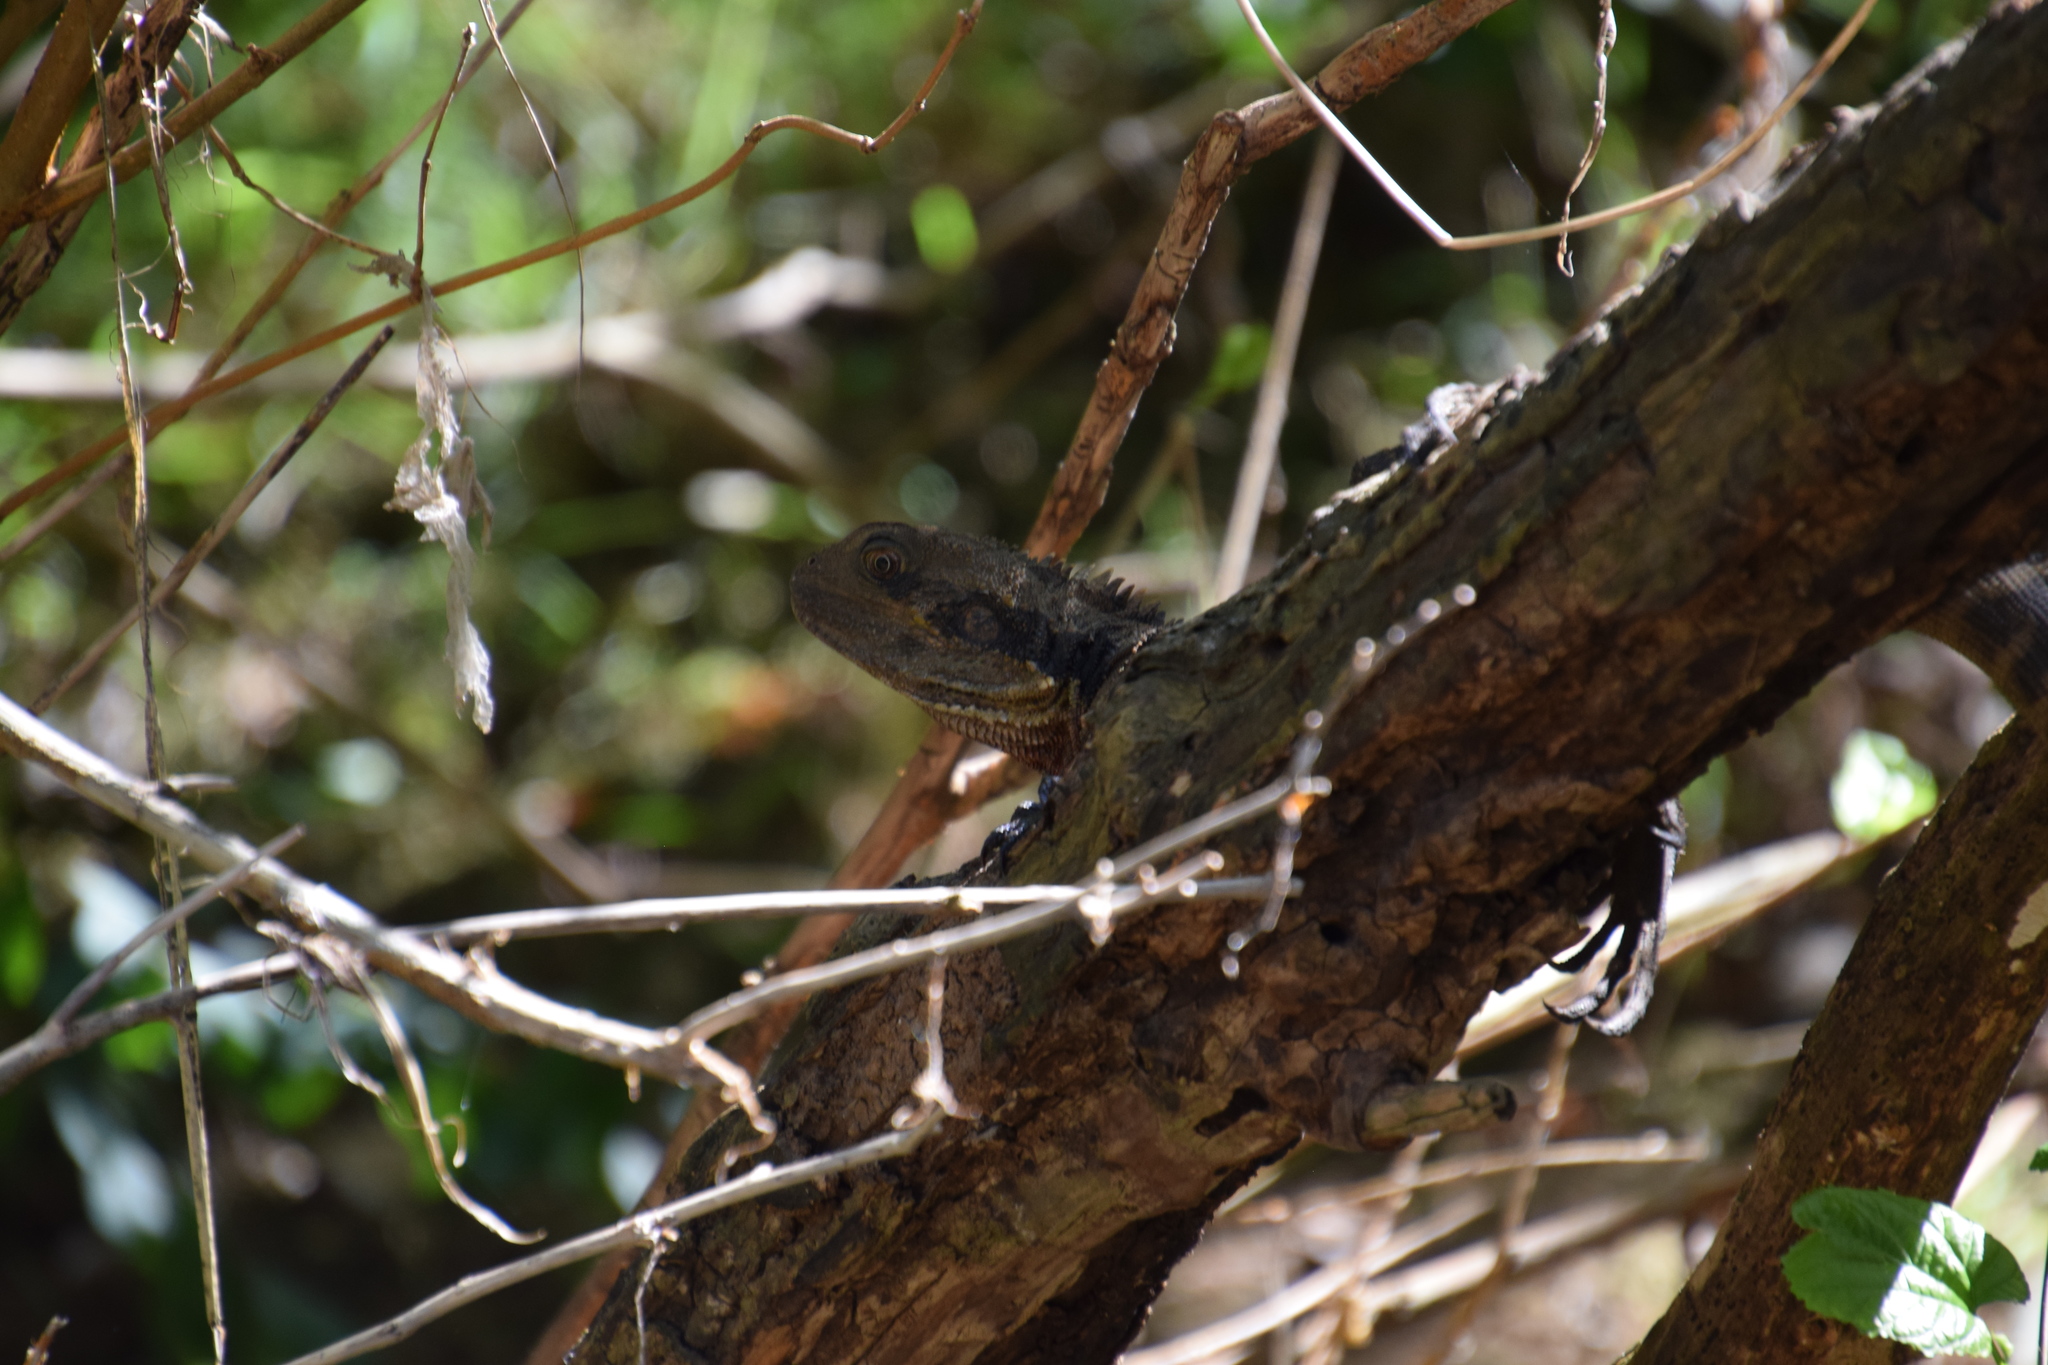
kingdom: Animalia
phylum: Chordata
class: Squamata
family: Agamidae
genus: Intellagama
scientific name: Intellagama lesueurii
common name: Eastern water dragon
